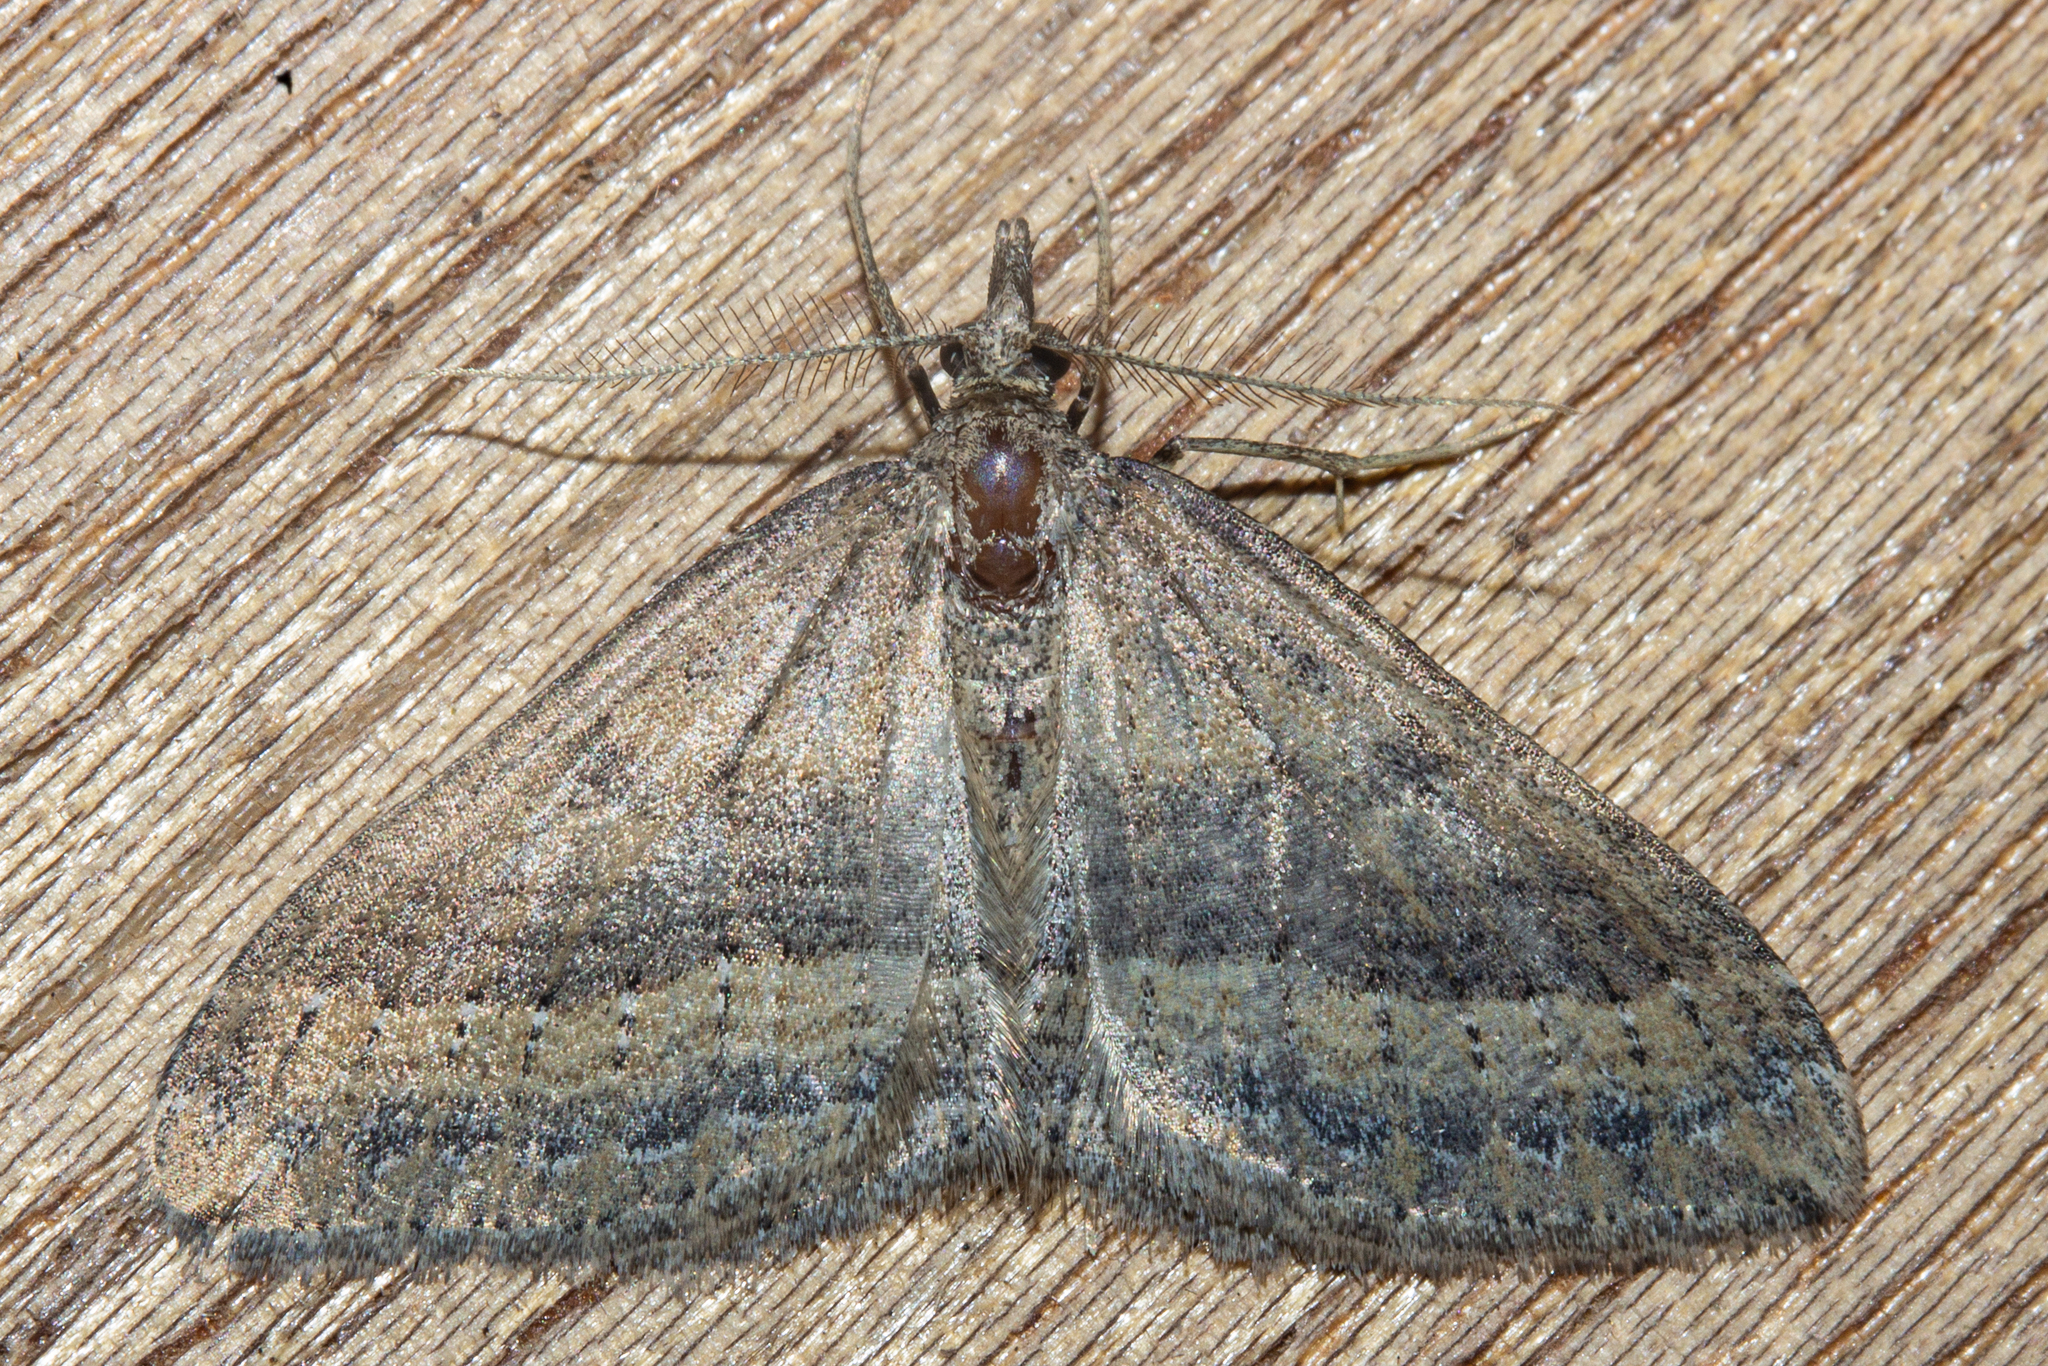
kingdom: Animalia
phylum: Arthropoda
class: Insecta
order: Lepidoptera
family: Geometridae
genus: Epyaxa
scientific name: Epyaxa venipunctata
